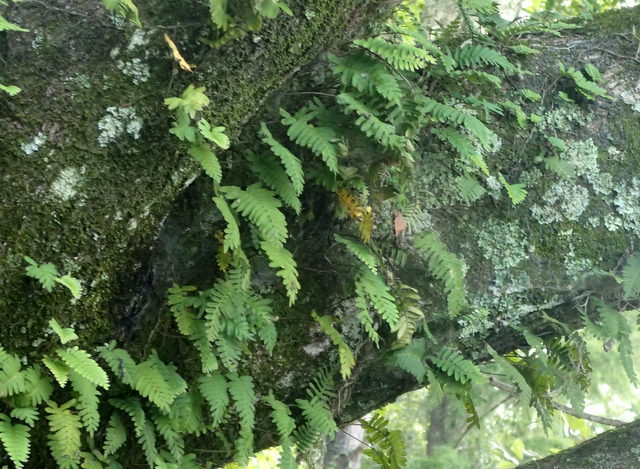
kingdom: Plantae
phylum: Tracheophyta
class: Polypodiopsida
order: Polypodiales
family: Polypodiaceae
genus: Pleopeltis
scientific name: Pleopeltis michauxiana
